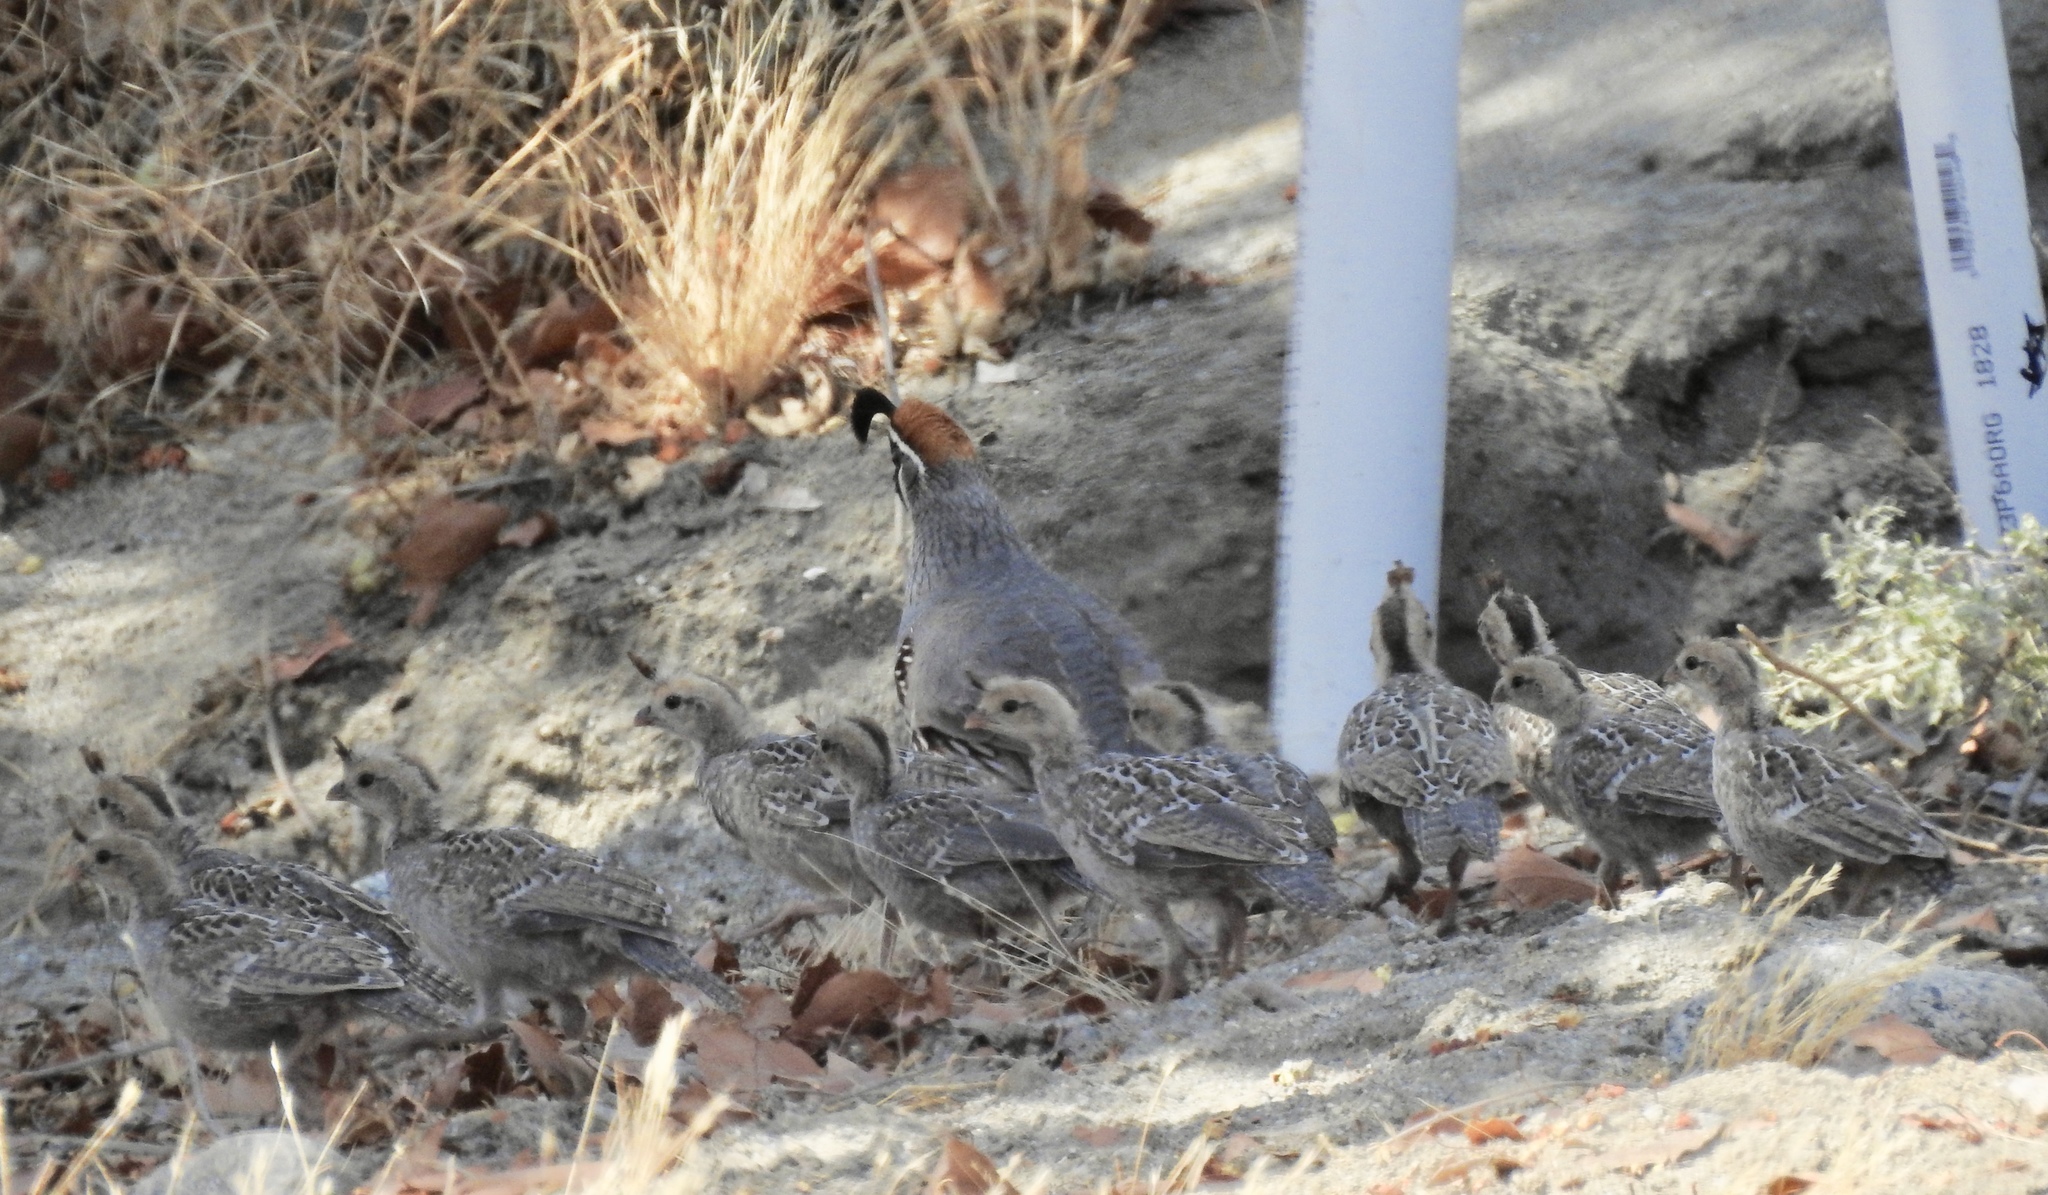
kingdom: Animalia
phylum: Chordata
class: Aves
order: Galliformes
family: Odontophoridae
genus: Callipepla
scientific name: Callipepla gambelii
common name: Gambel's quail
